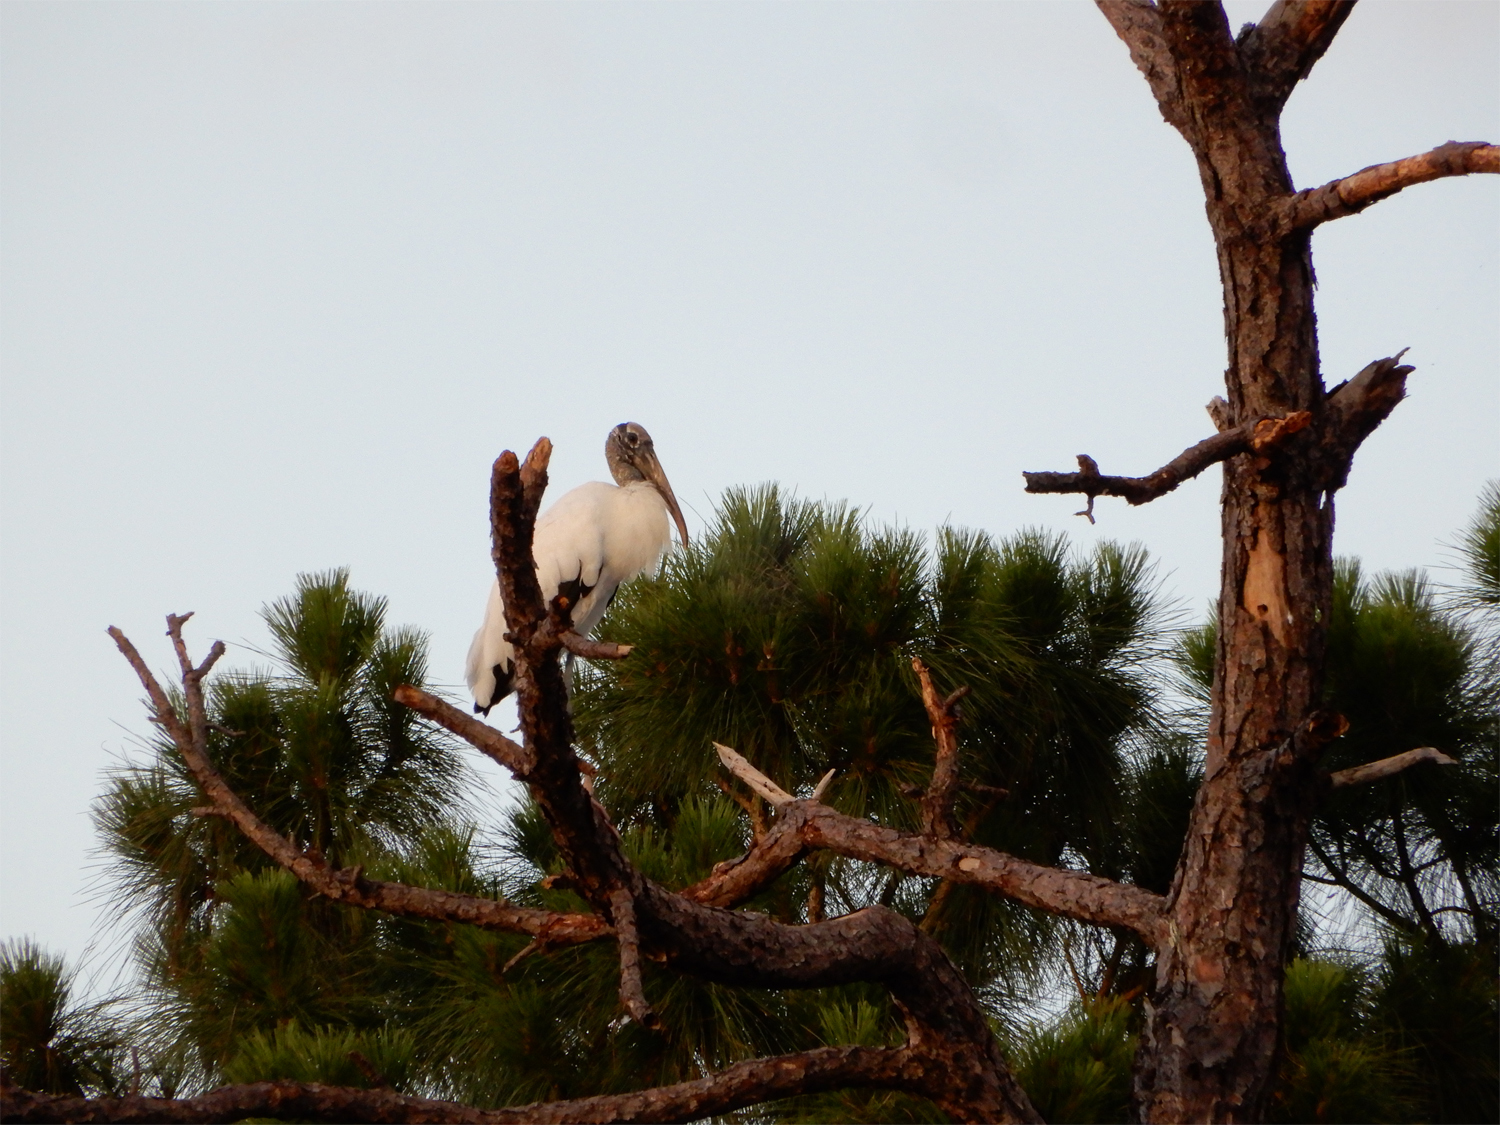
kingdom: Animalia
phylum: Chordata
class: Aves
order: Ciconiiformes
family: Ciconiidae
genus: Mycteria
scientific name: Mycteria americana
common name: Wood stork
